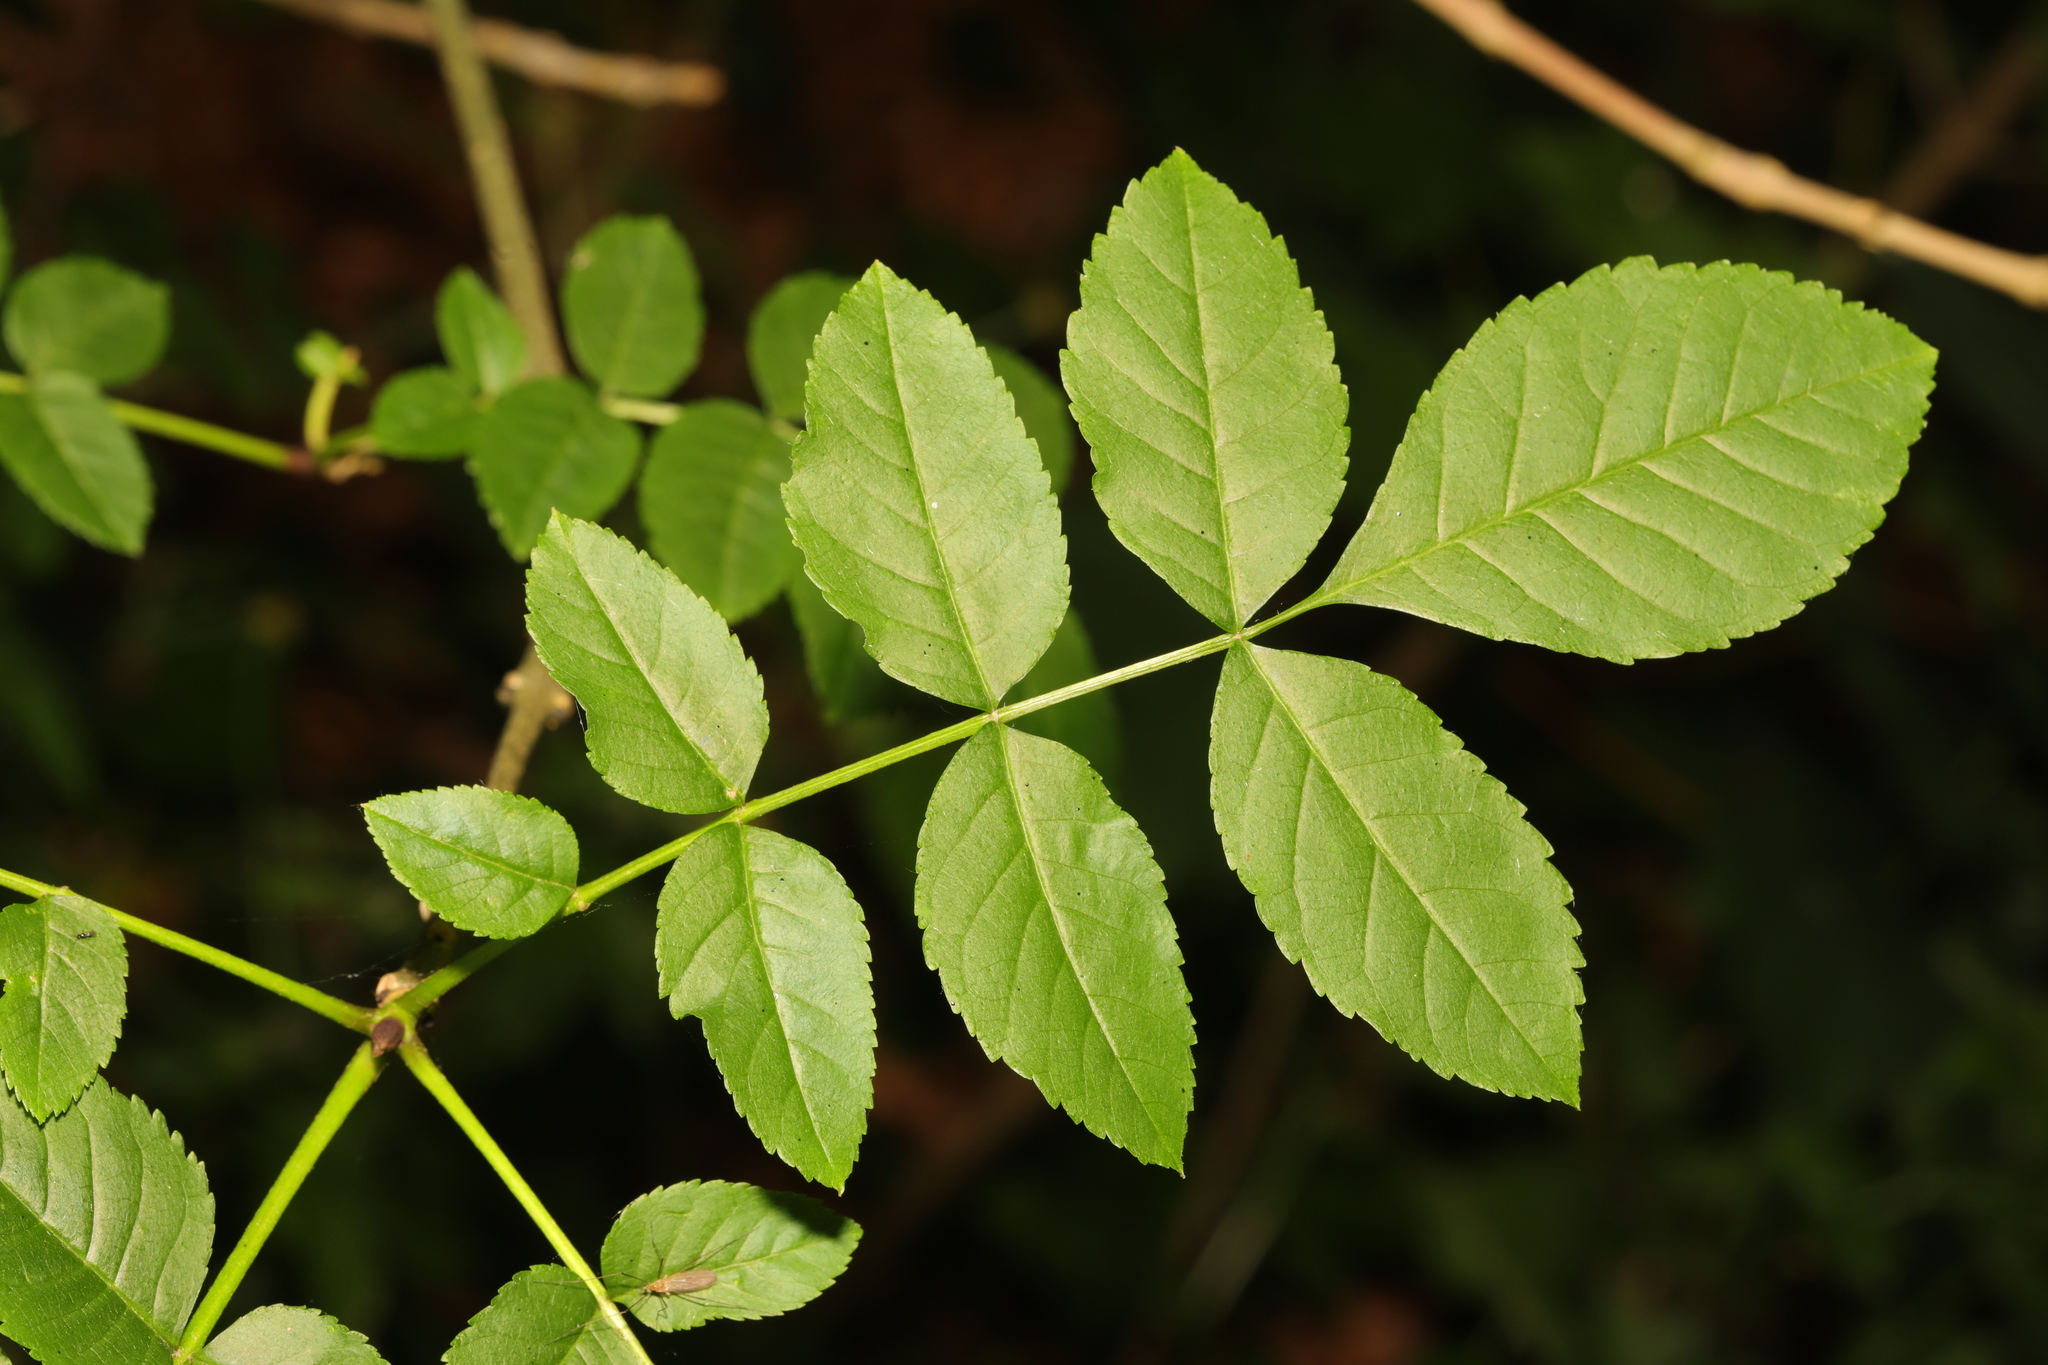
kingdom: Plantae
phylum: Tracheophyta
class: Magnoliopsida
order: Lamiales
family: Oleaceae
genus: Fraxinus
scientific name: Fraxinus excelsior
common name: European ash
